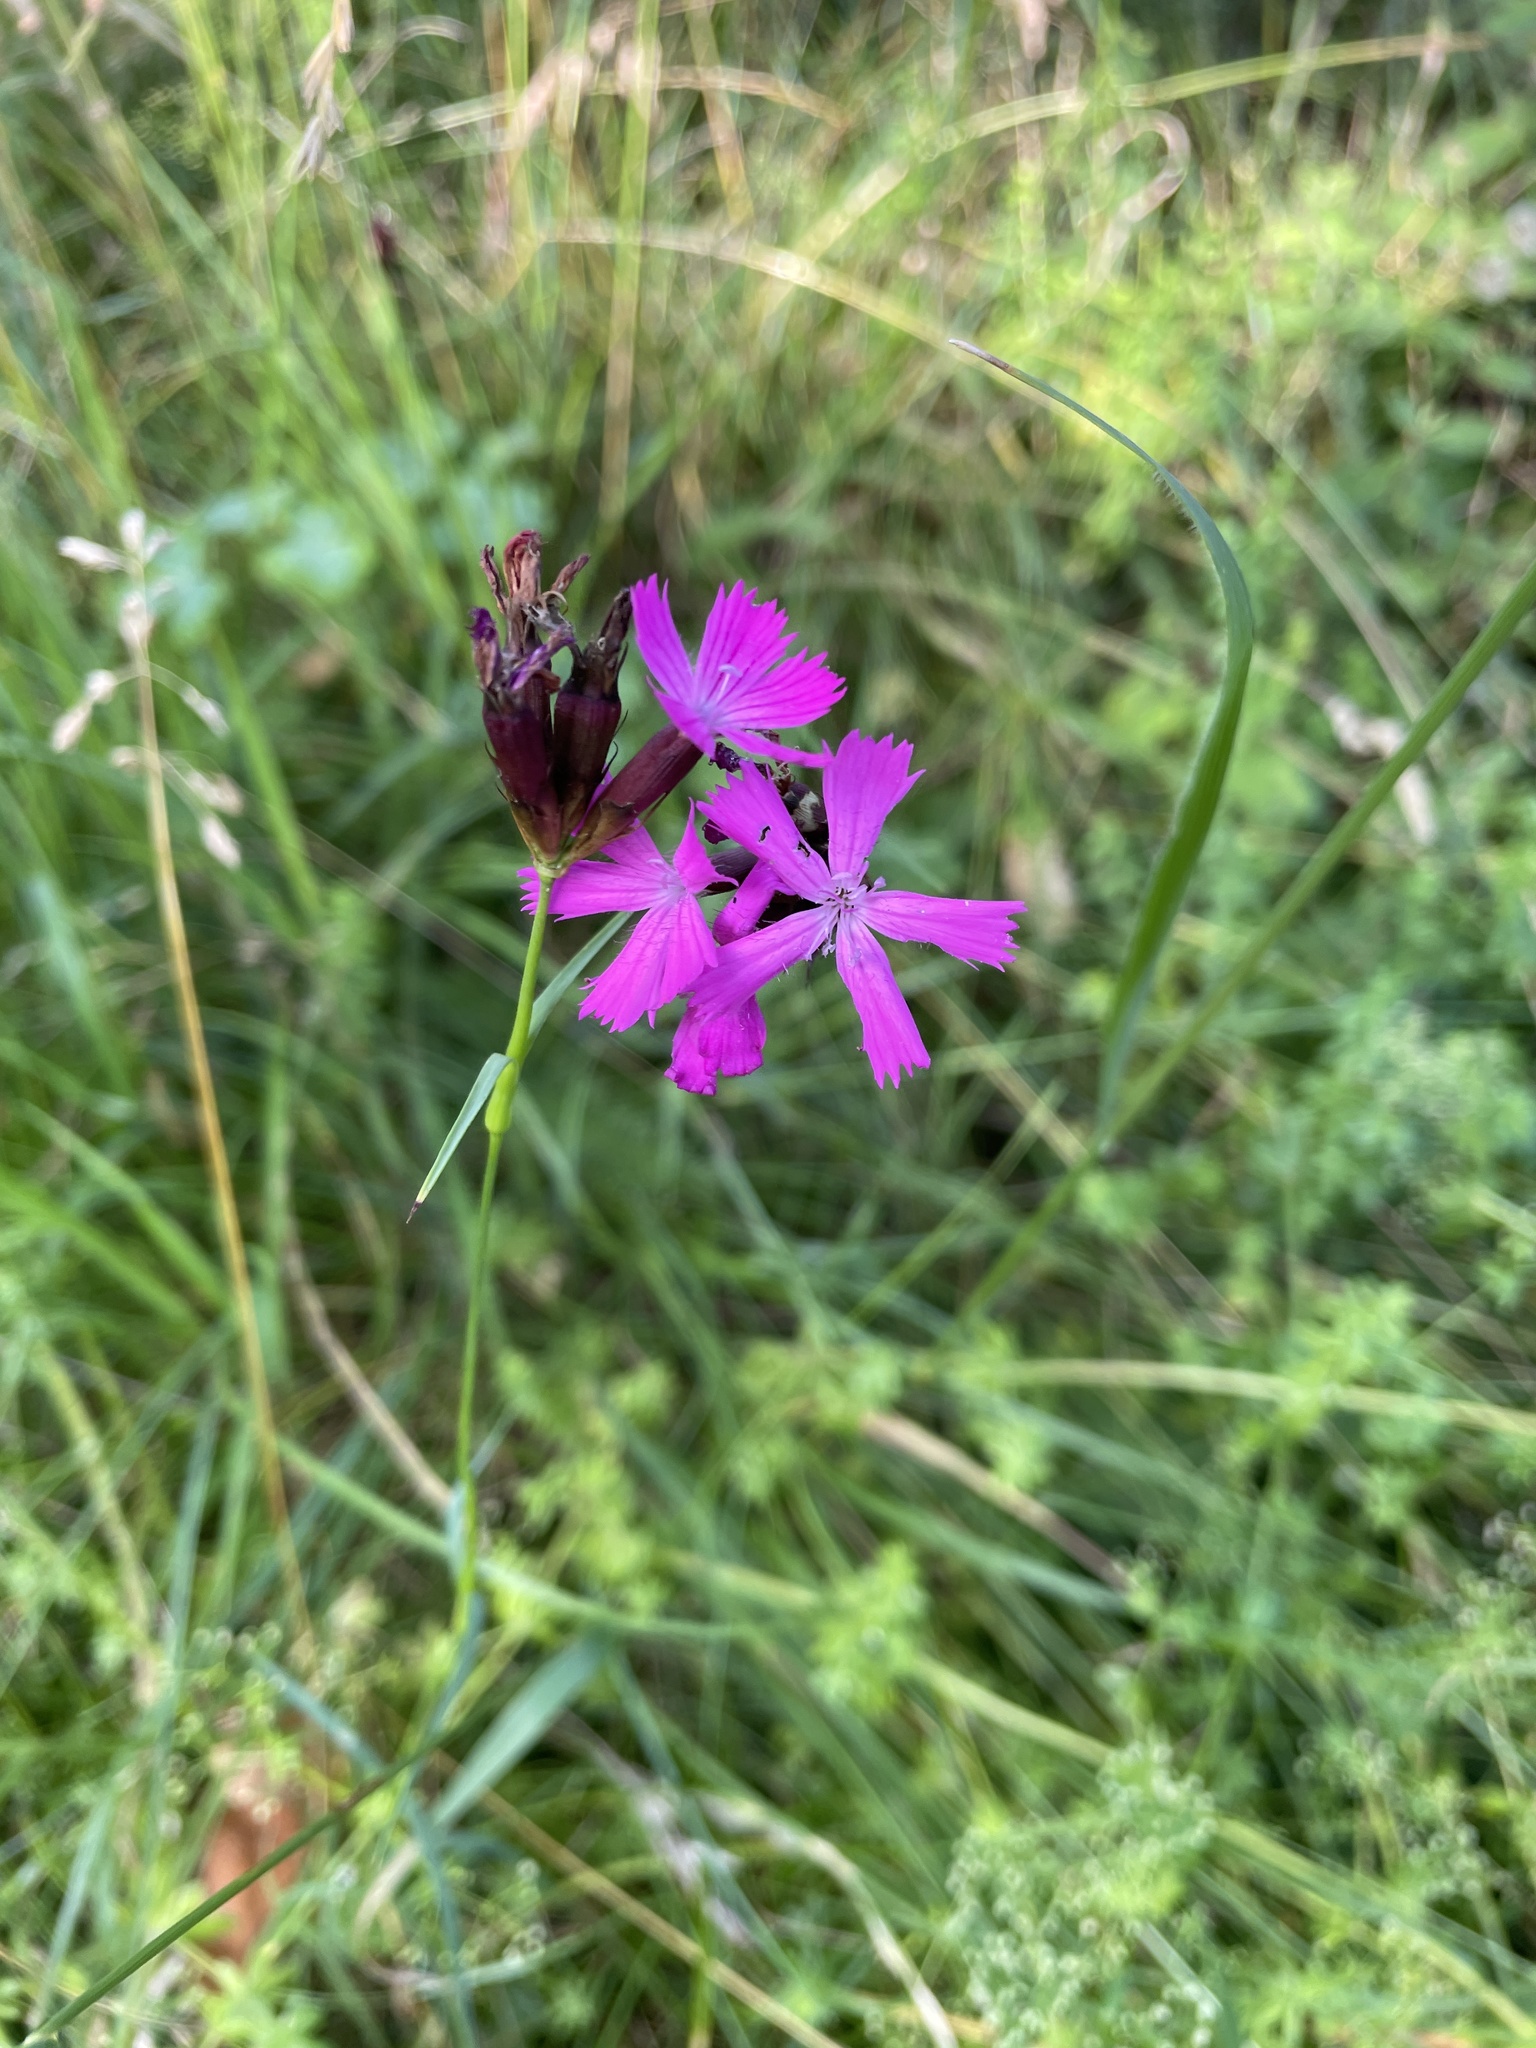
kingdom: Plantae
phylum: Tracheophyta
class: Magnoliopsida
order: Caryophyllales
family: Caryophyllaceae
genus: Dianthus
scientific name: Dianthus carthusianorum
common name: Carthusian pink
